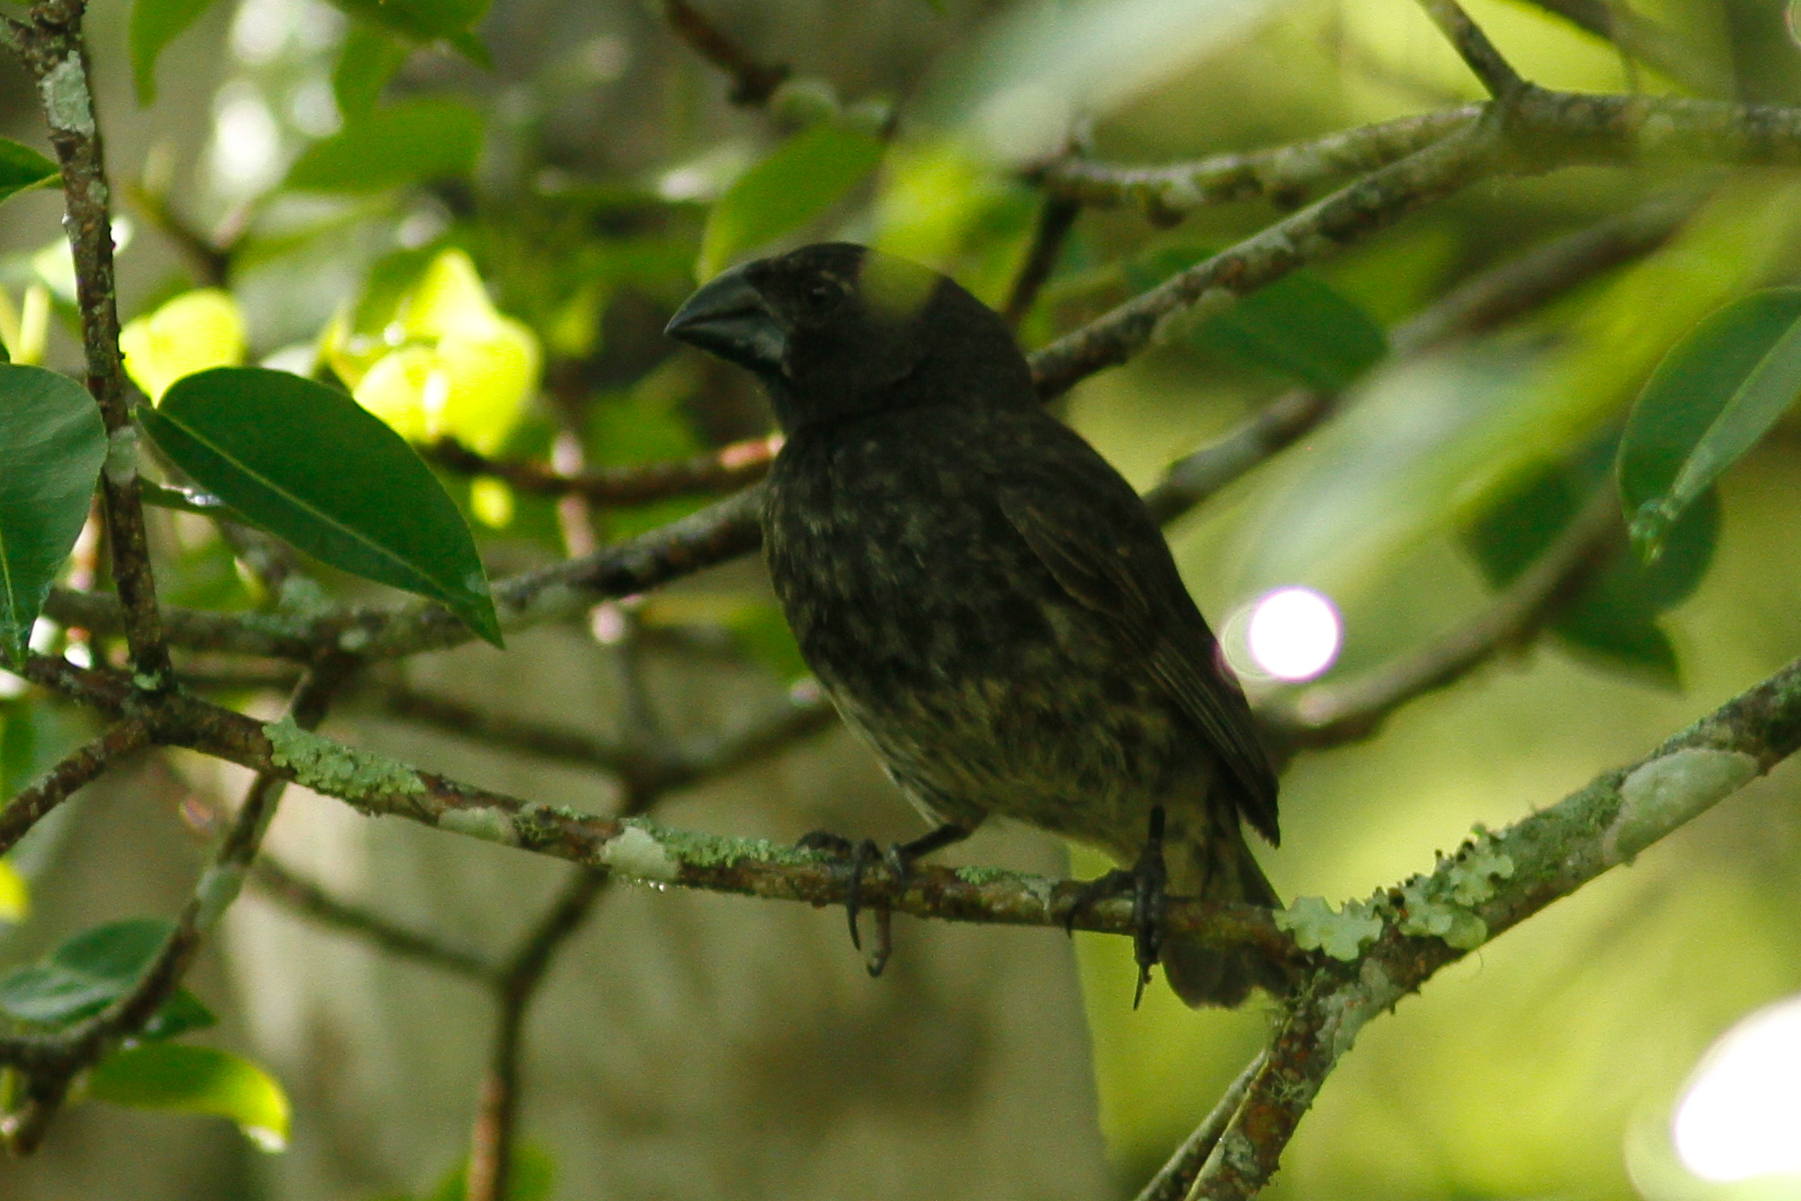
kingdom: Animalia
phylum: Chordata
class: Aves
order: Passeriformes
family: Thraupidae
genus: Platyspiza
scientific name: Platyspiza crassirostris
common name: Vegetarian finch
